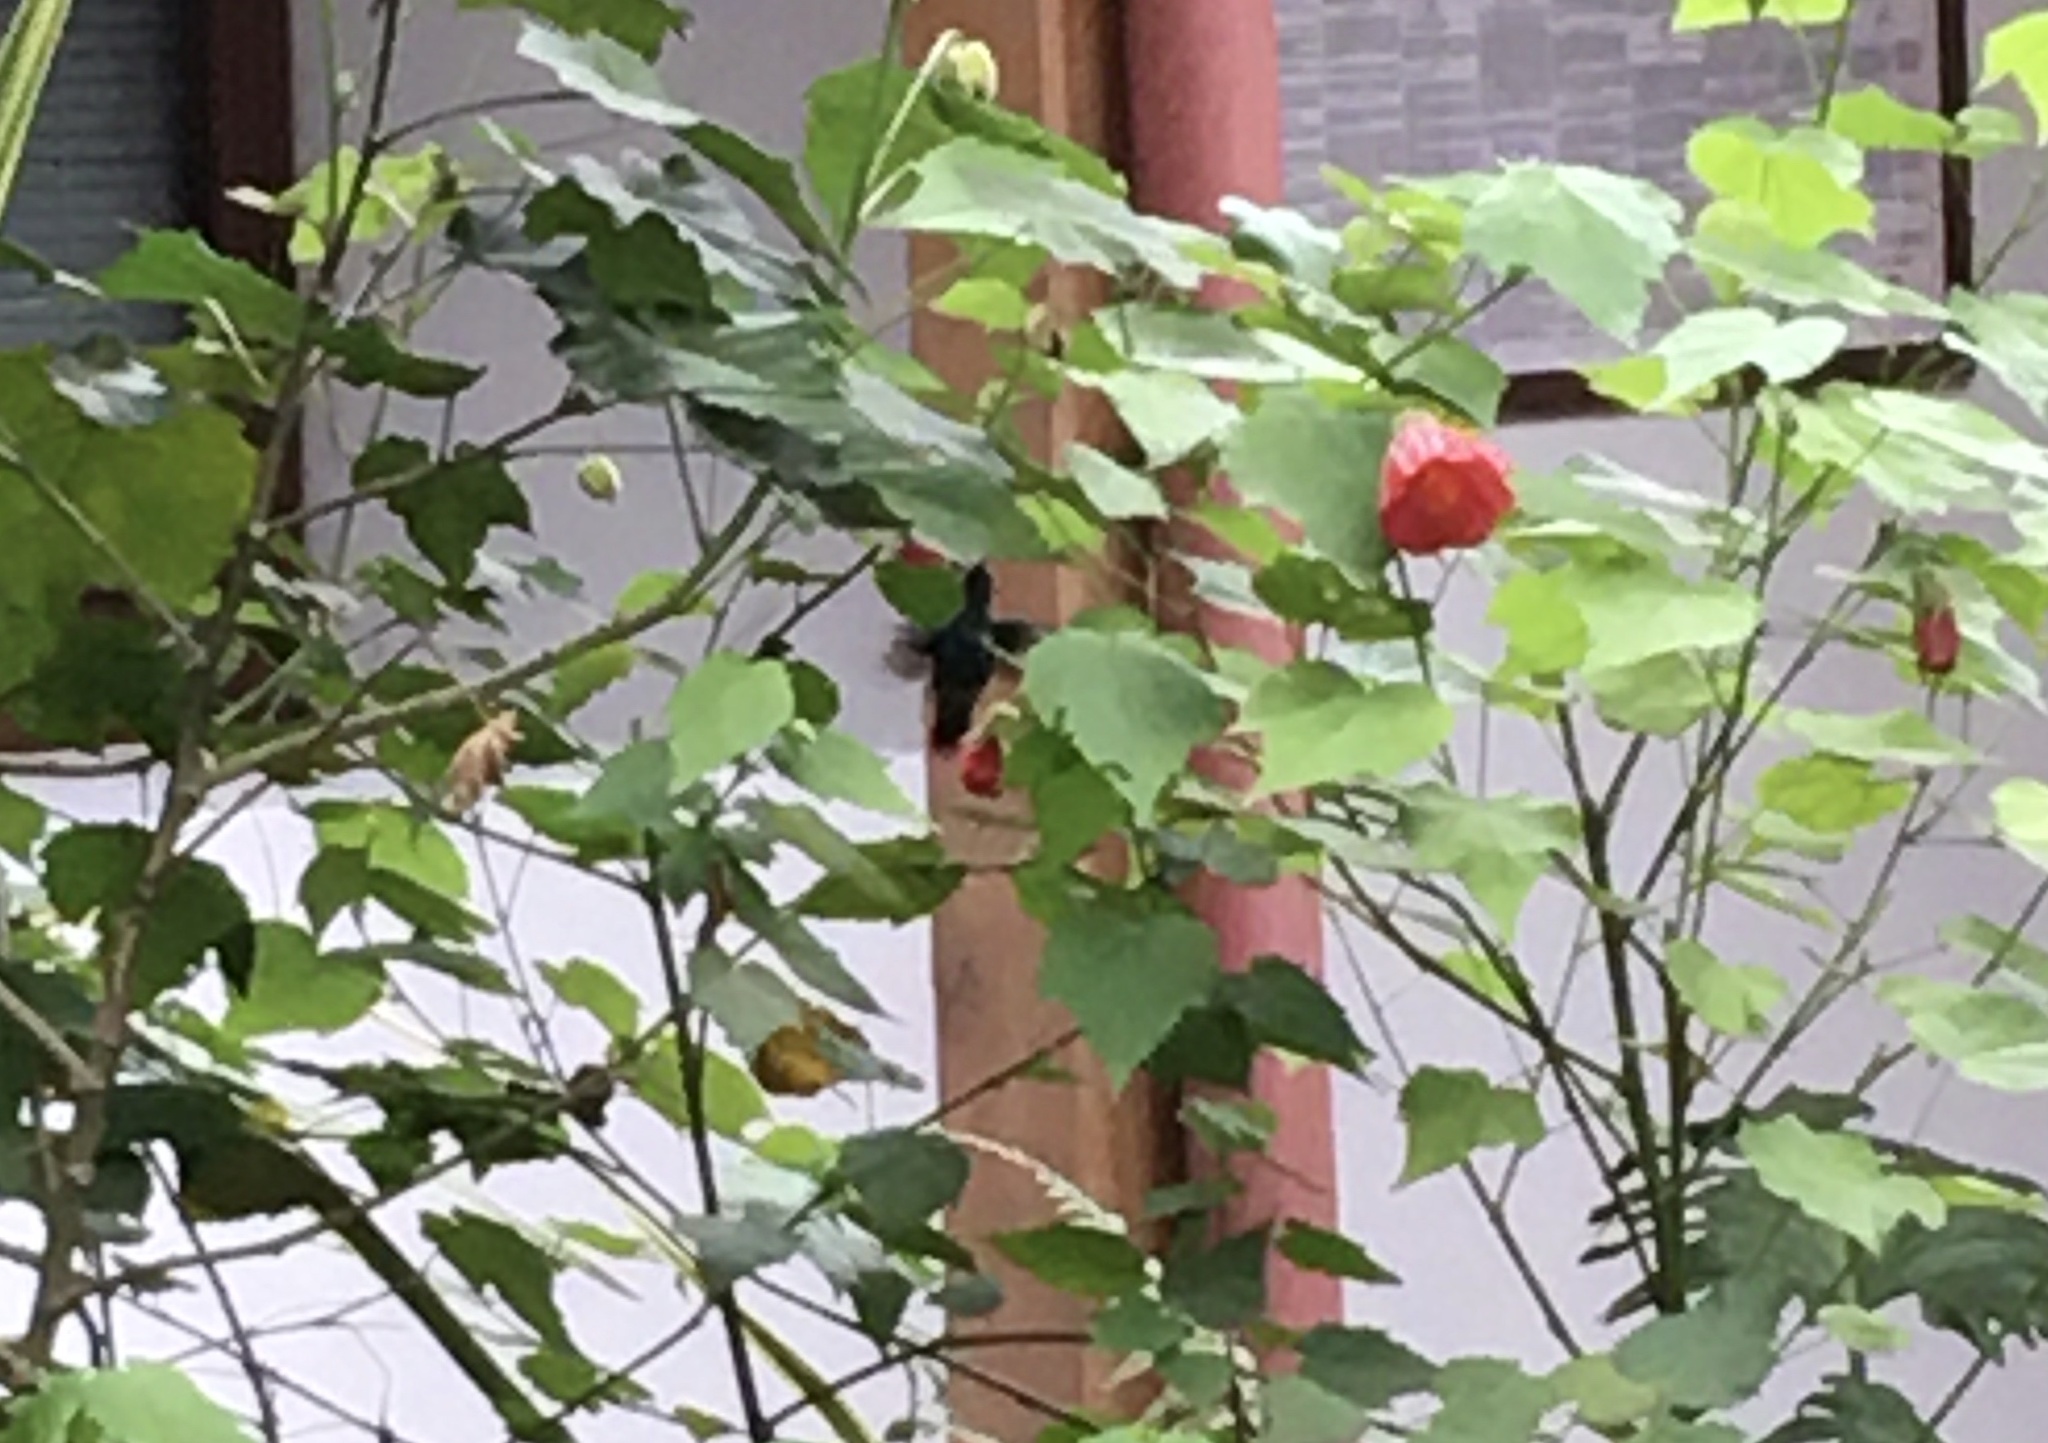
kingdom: Animalia
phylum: Chordata
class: Aves
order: Apodiformes
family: Trochilidae
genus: Colibri
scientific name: Colibri coruscans
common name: Sparkling violetear
